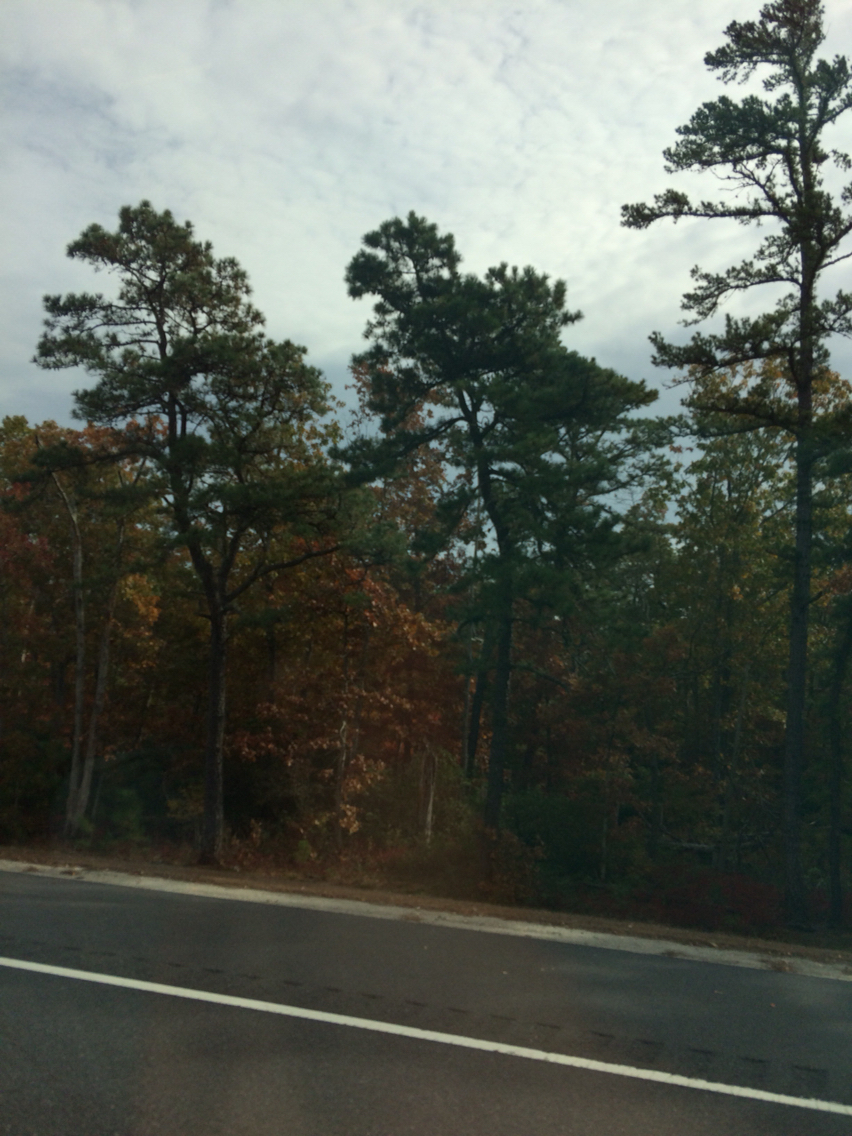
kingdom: Plantae
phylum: Tracheophyta
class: Pinopsida
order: Pinales
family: Pinaceae
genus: Pinus
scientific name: Pinus rigida
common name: Pitch pine
